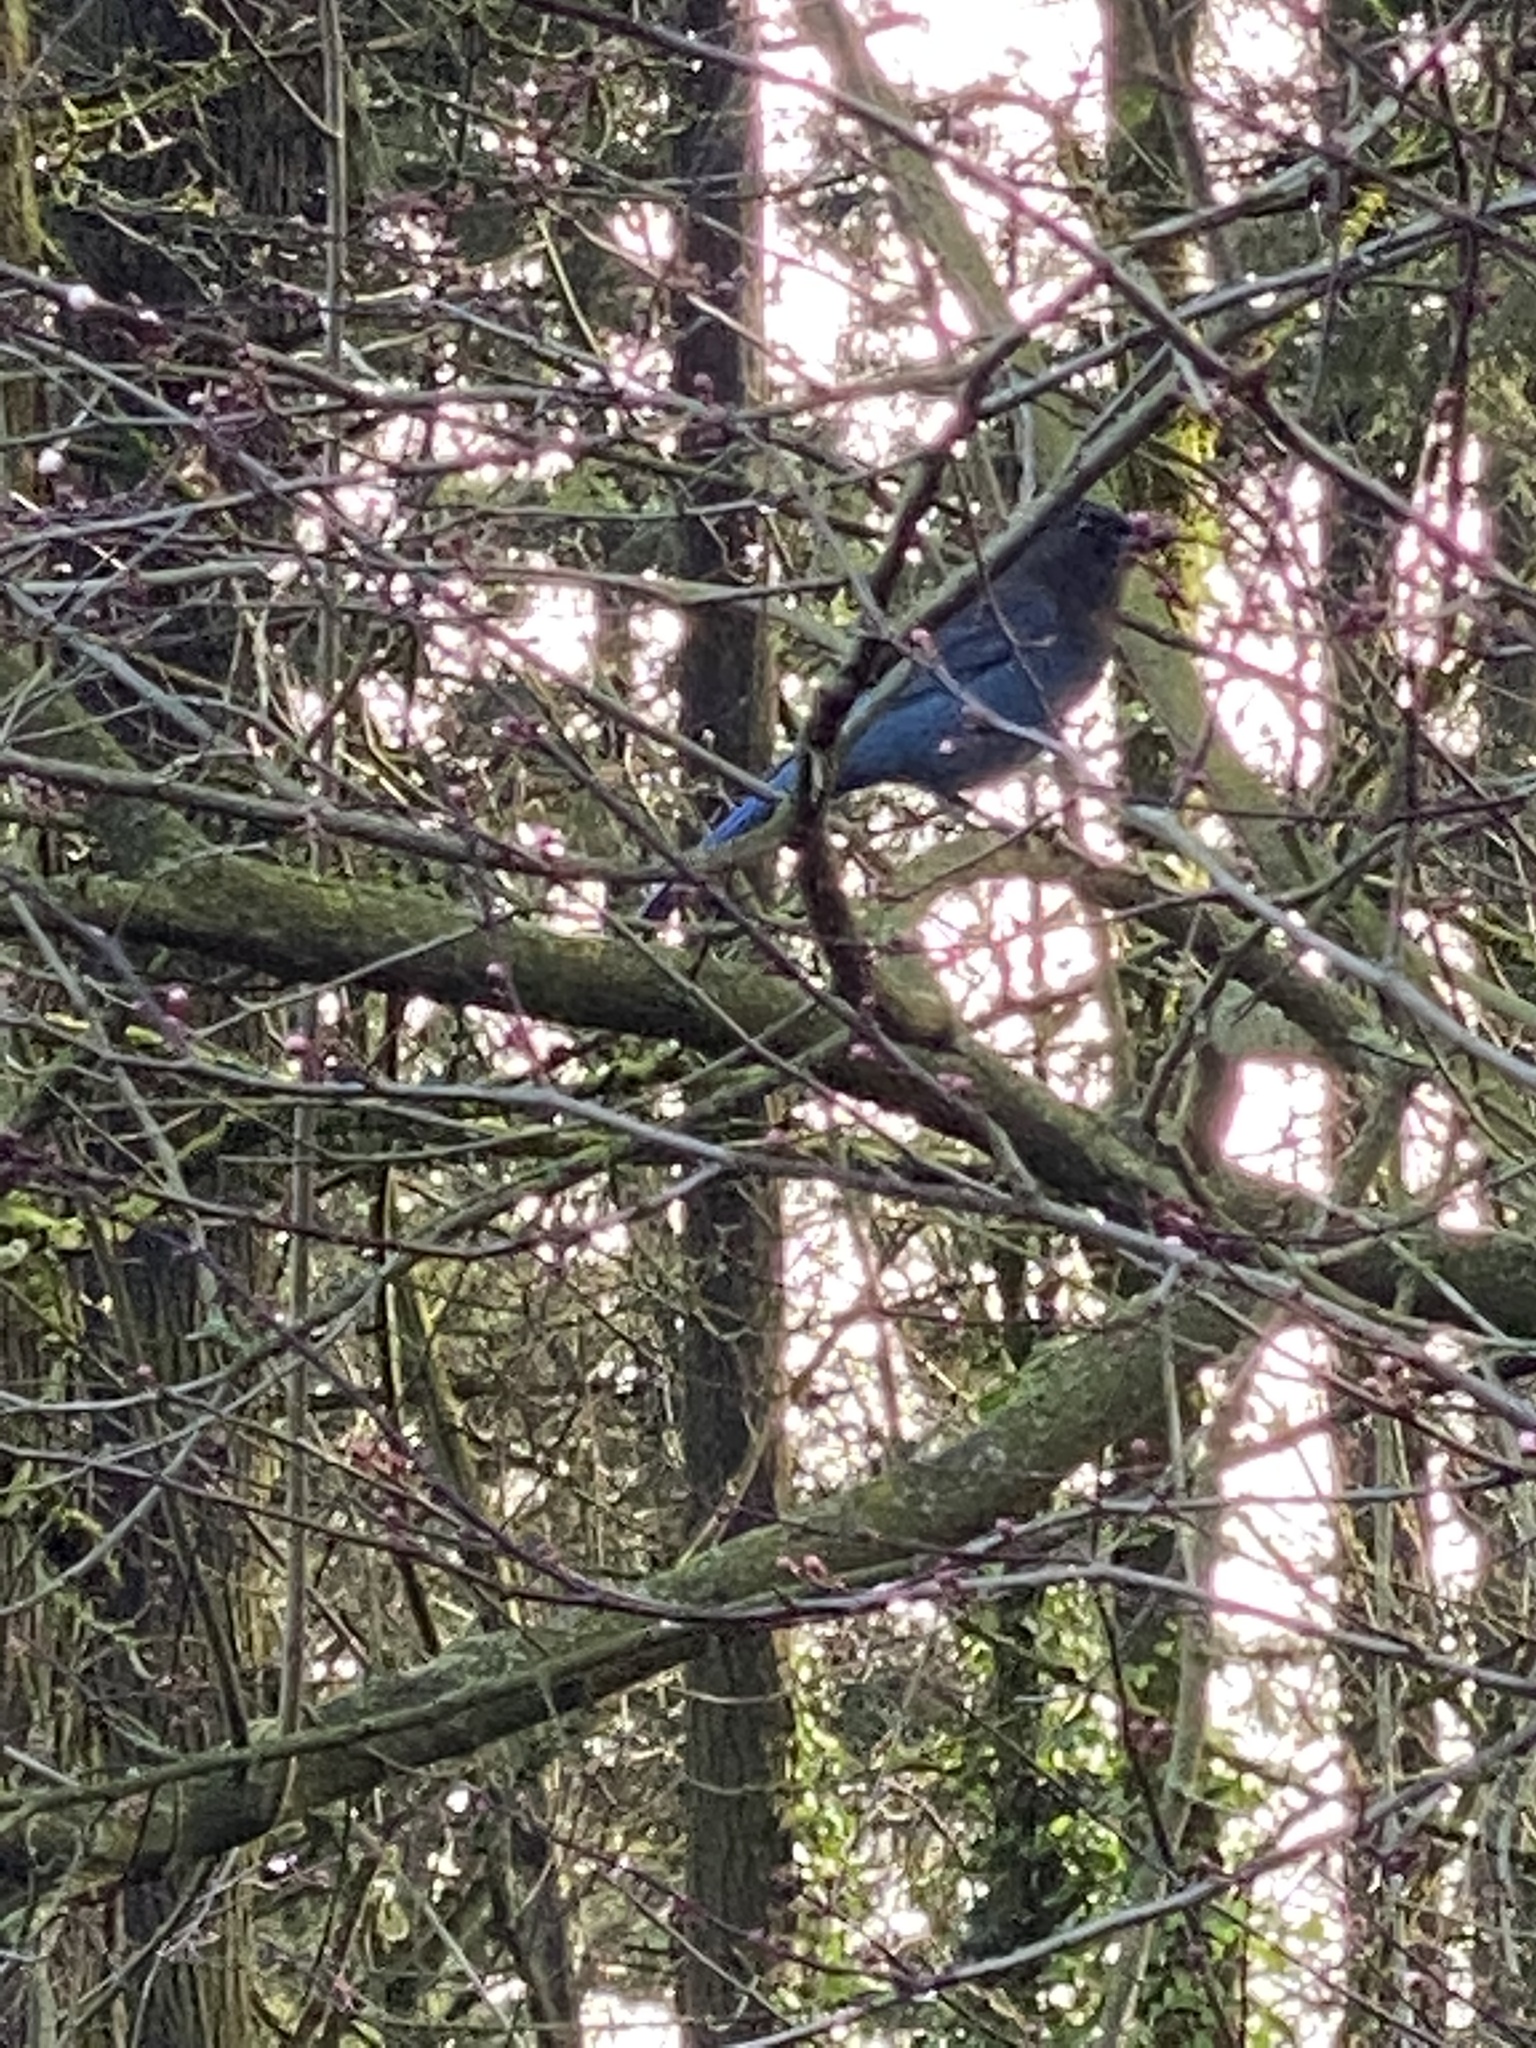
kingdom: Animalia
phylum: Chordata
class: Aves
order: Passeriformes
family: Corvidae
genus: Cyanocitta
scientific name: Cyanocitta stelleri
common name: Steller's jay
